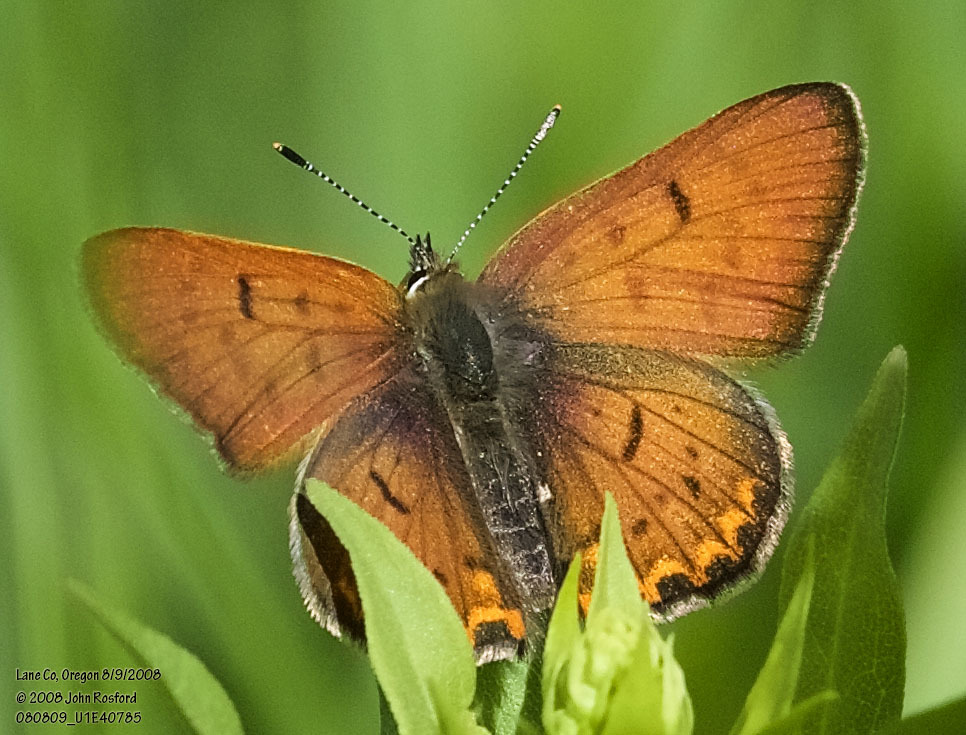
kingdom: Animalia
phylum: Arthropoda
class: Insecta
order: Lepidoptera
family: Lycaenidae
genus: Tharsalea
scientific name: Tharsalea nivalis
